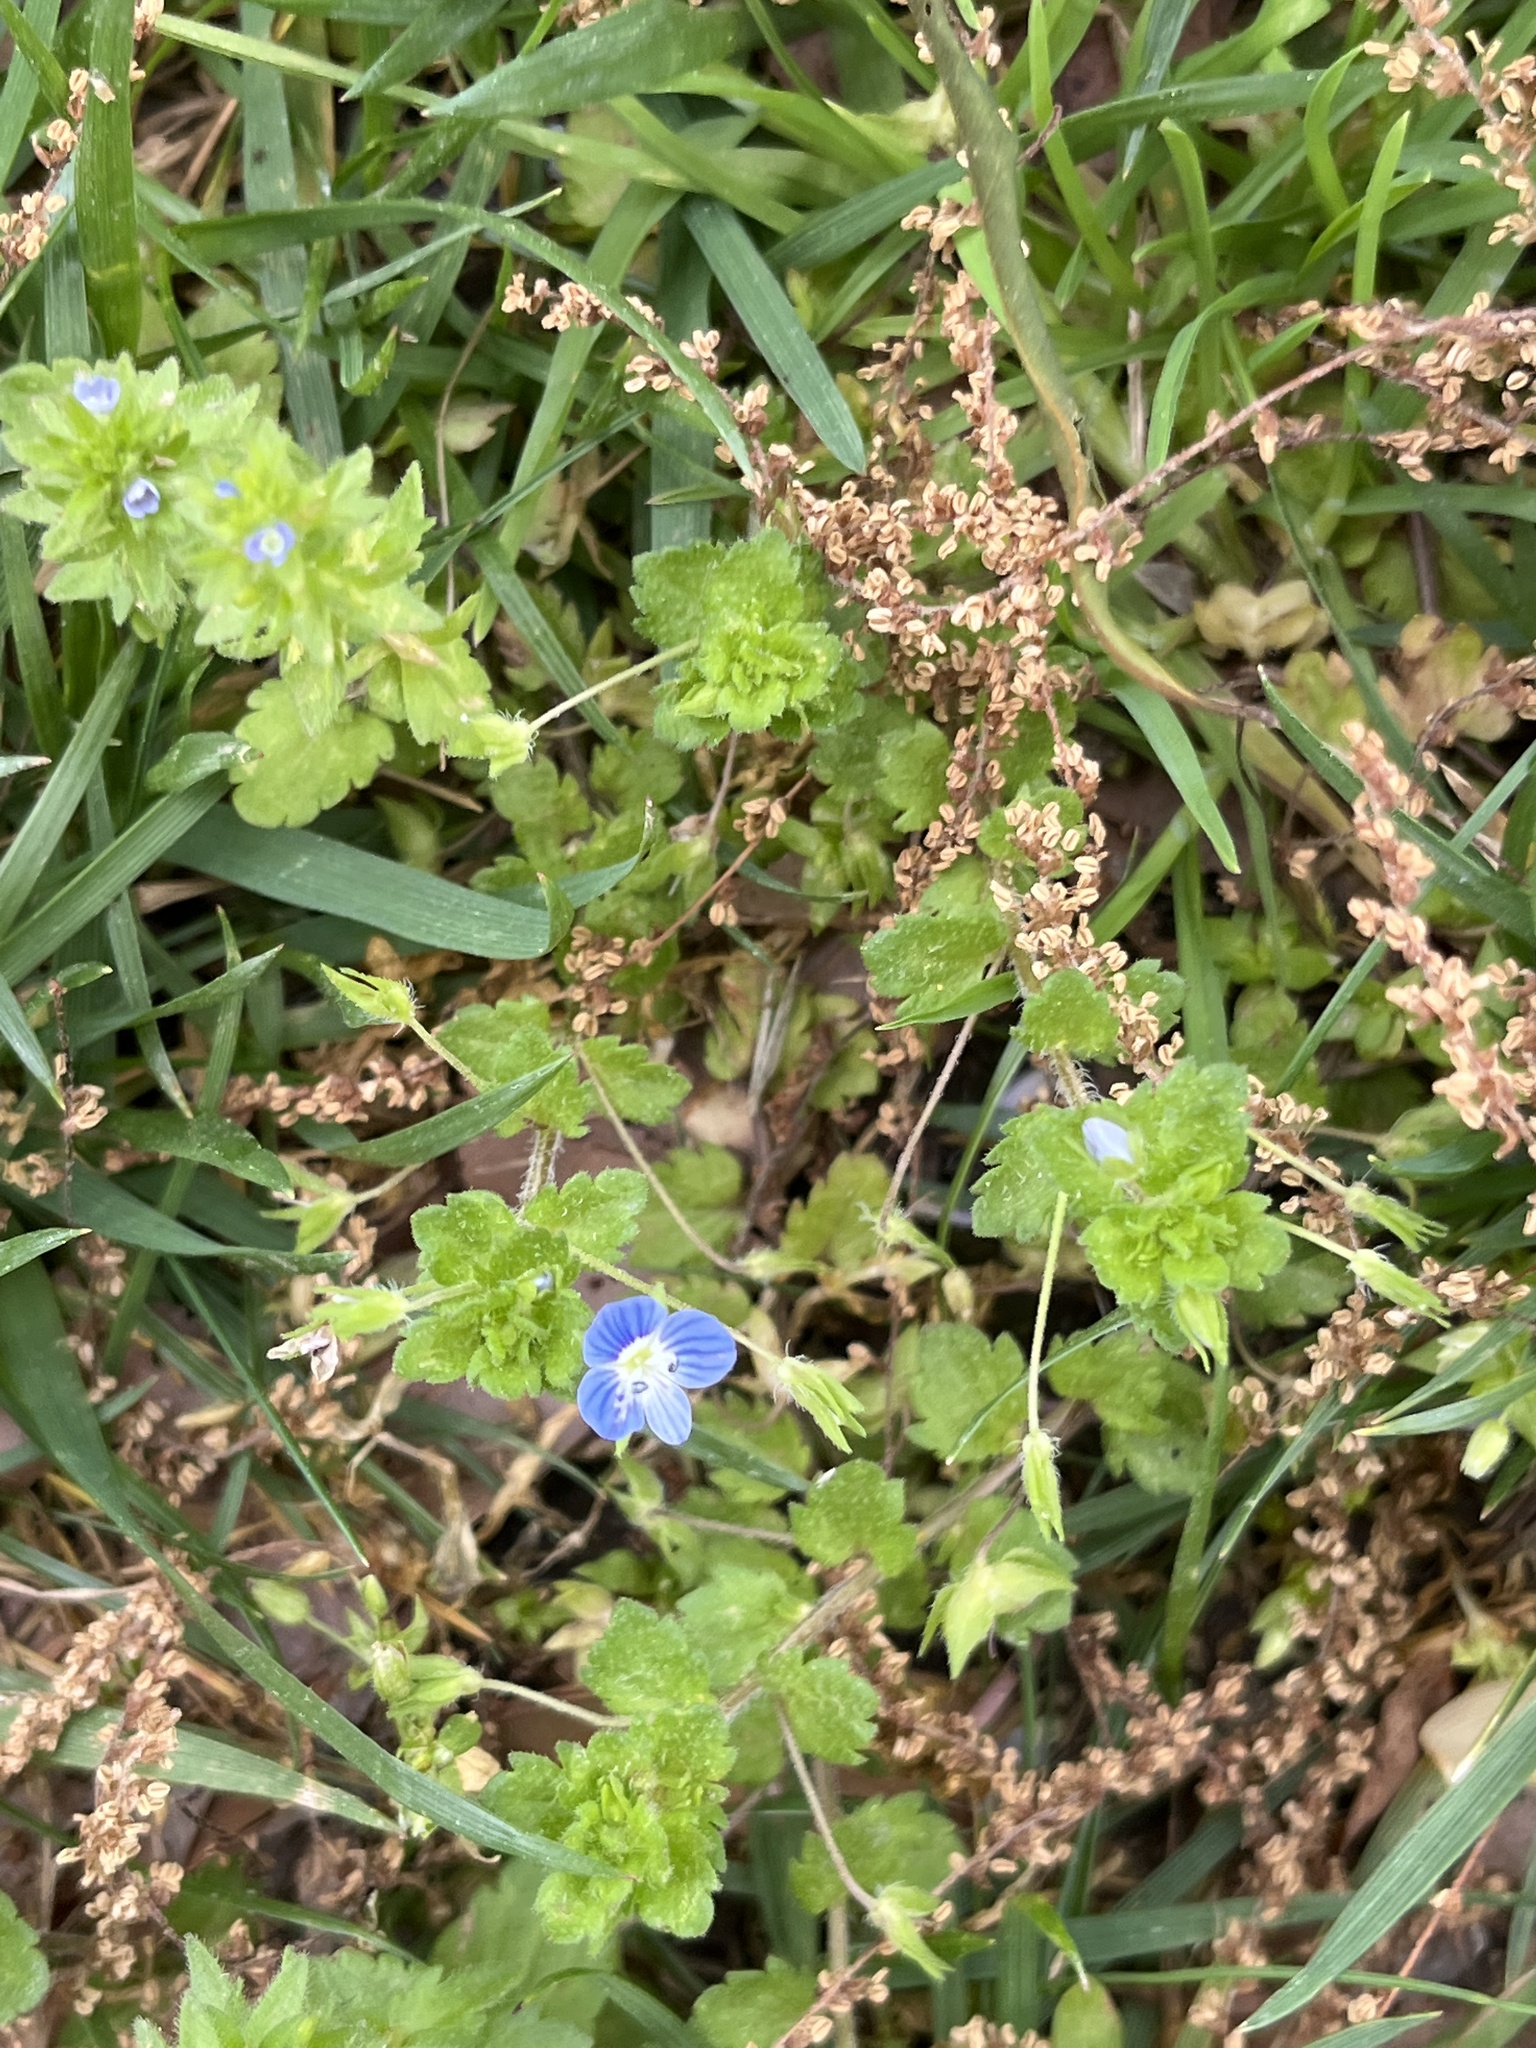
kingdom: Plantae
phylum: Tracheophyta
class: Magnoliopsida
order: Lamiales
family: Plantaginaceae
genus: Veronica
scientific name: Veronica persica
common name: Common field-speedwell
